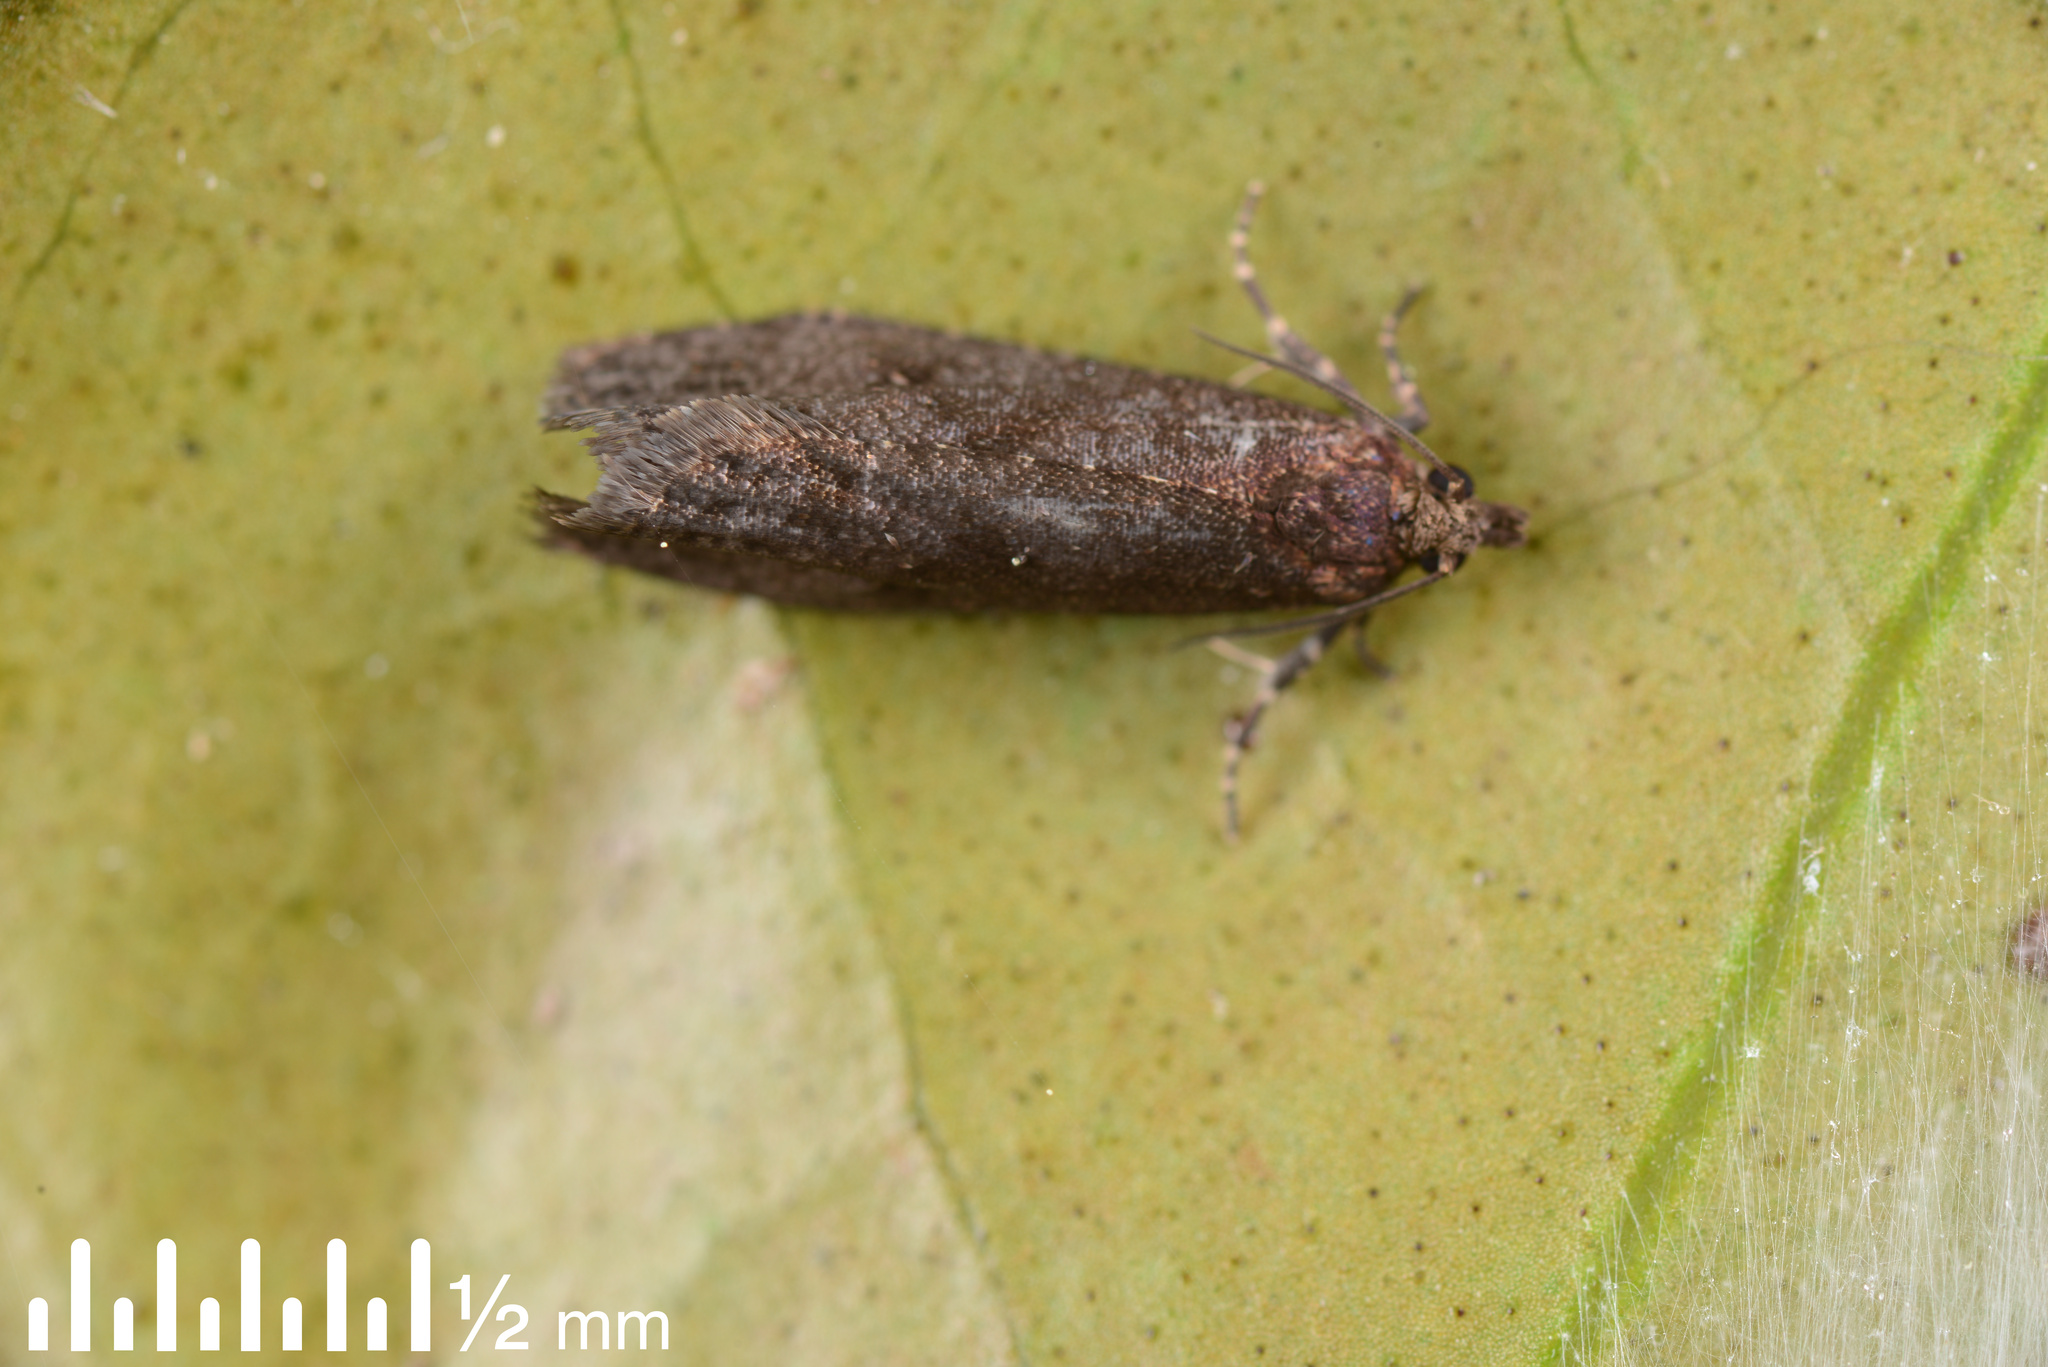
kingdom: Animalia
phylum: Arthropoda
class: Insecta
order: Lepidoptera
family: Tortricidae
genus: Cryptaspasma
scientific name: Cryptaspasma querula
